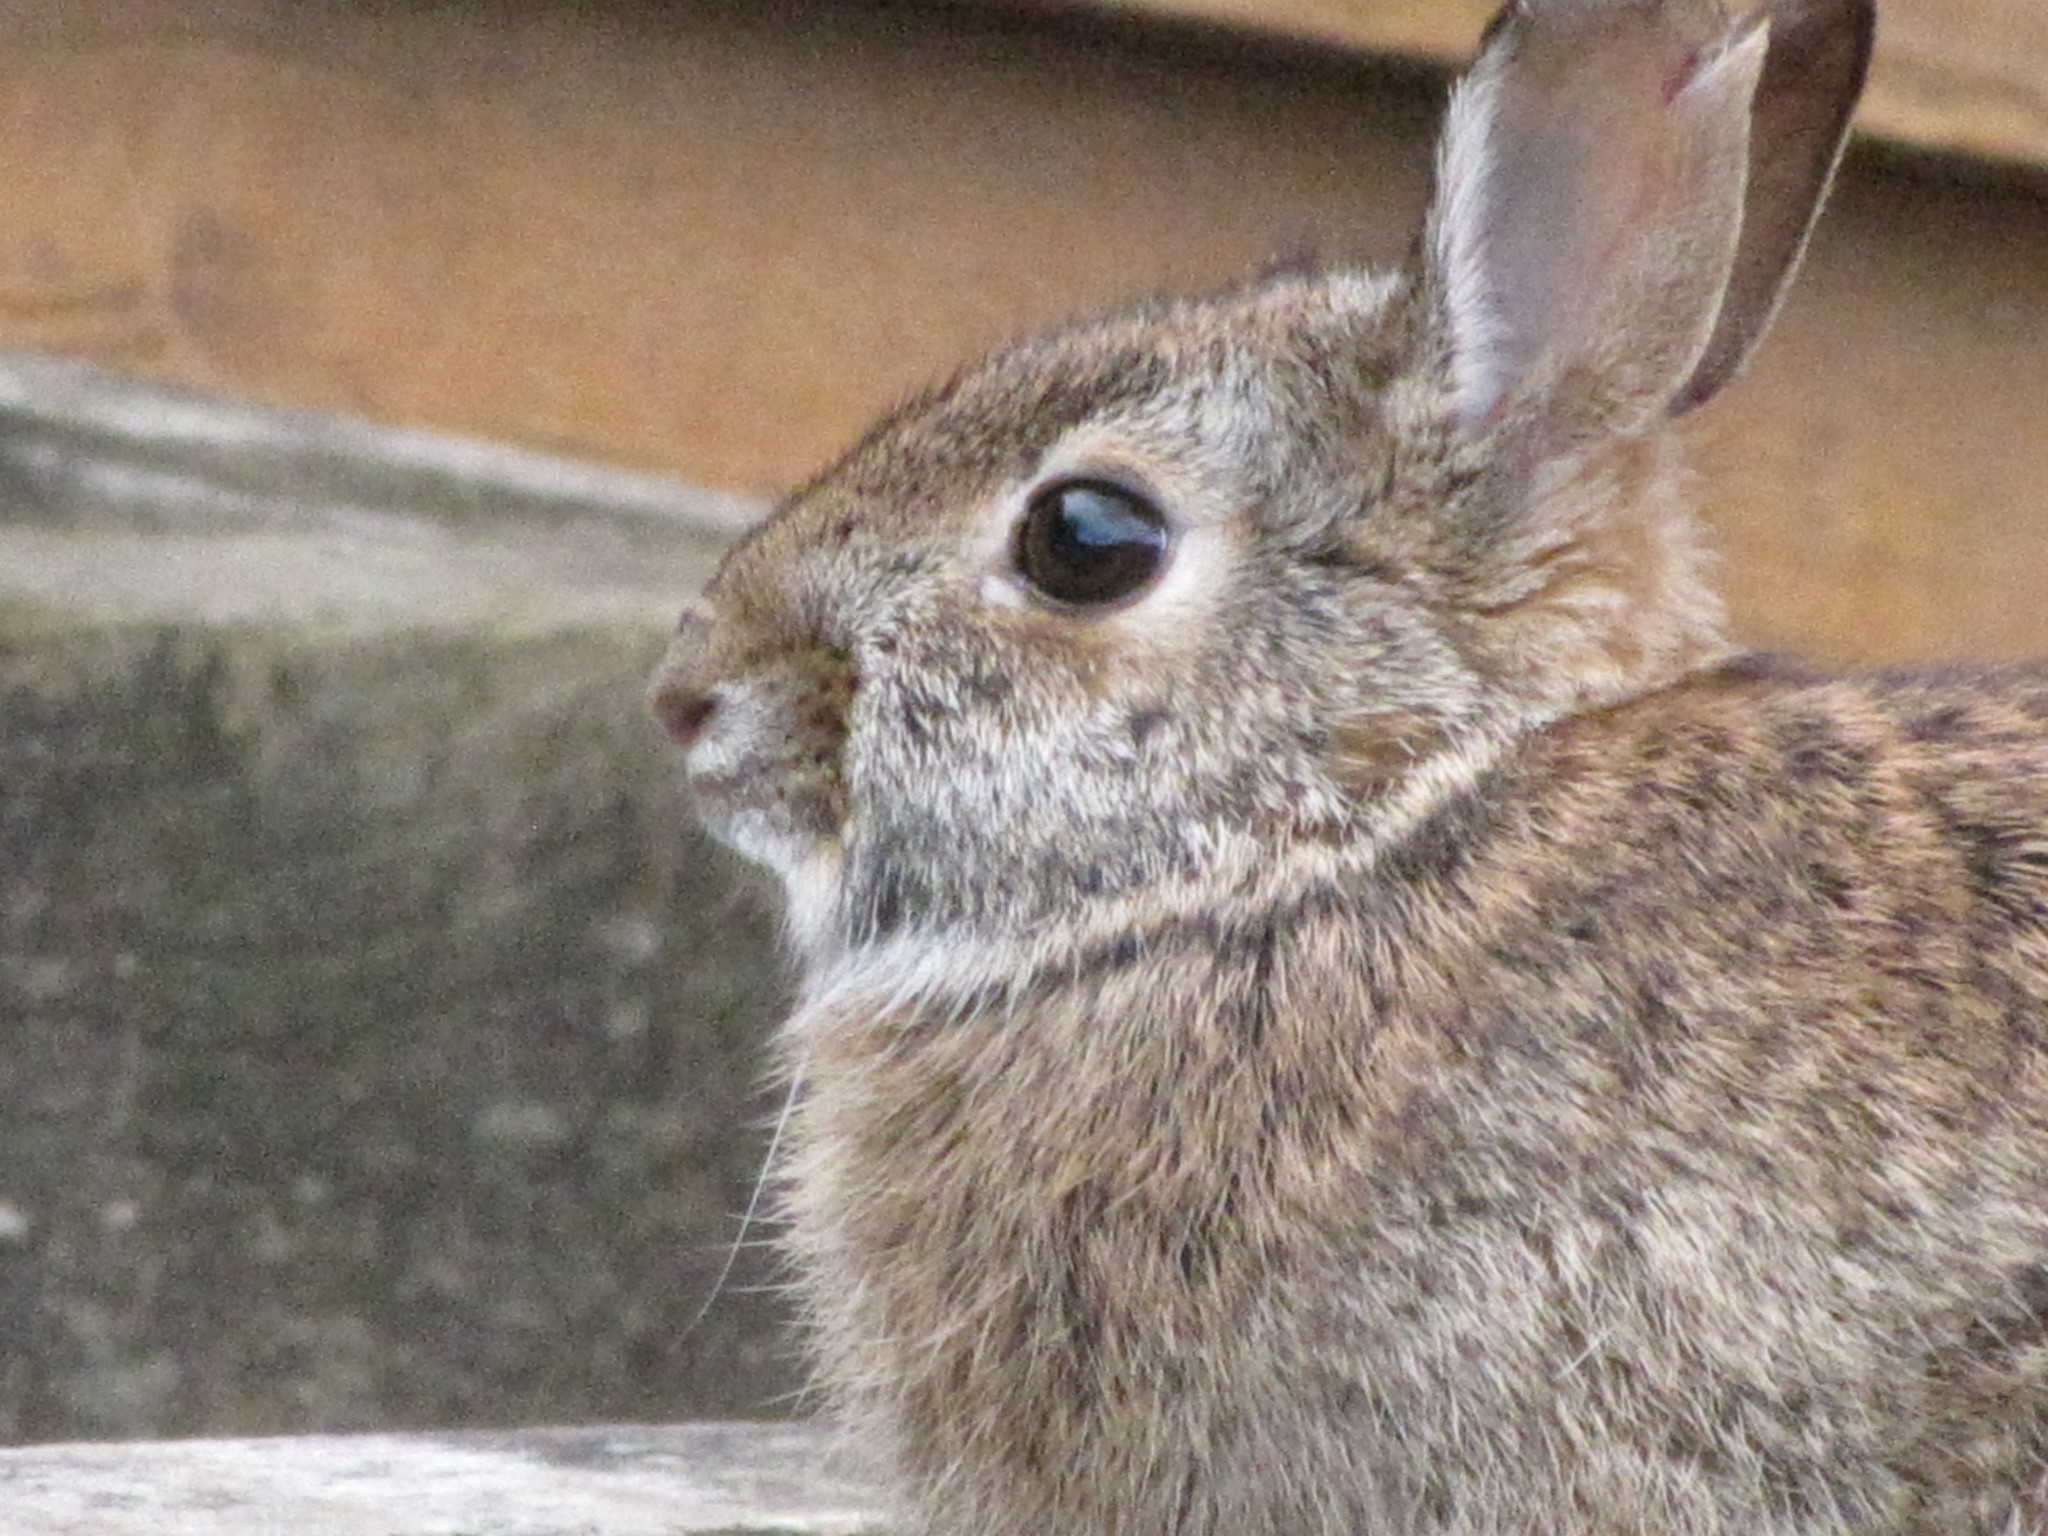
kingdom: Animalia
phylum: Chordata
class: Mammalia
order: Lagomorpha
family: Leporidae
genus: Sylvilagus
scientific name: Sylvilagus floridanus
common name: Eastern cottontail
